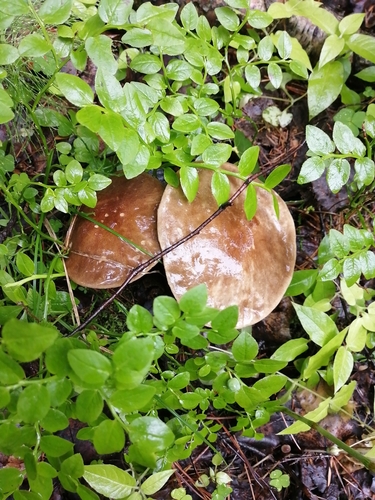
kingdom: Fungi
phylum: Basidiomycota
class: Agaricomycetes
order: Boletales
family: Boletaceae
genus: Leccinum
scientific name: Leccinum
